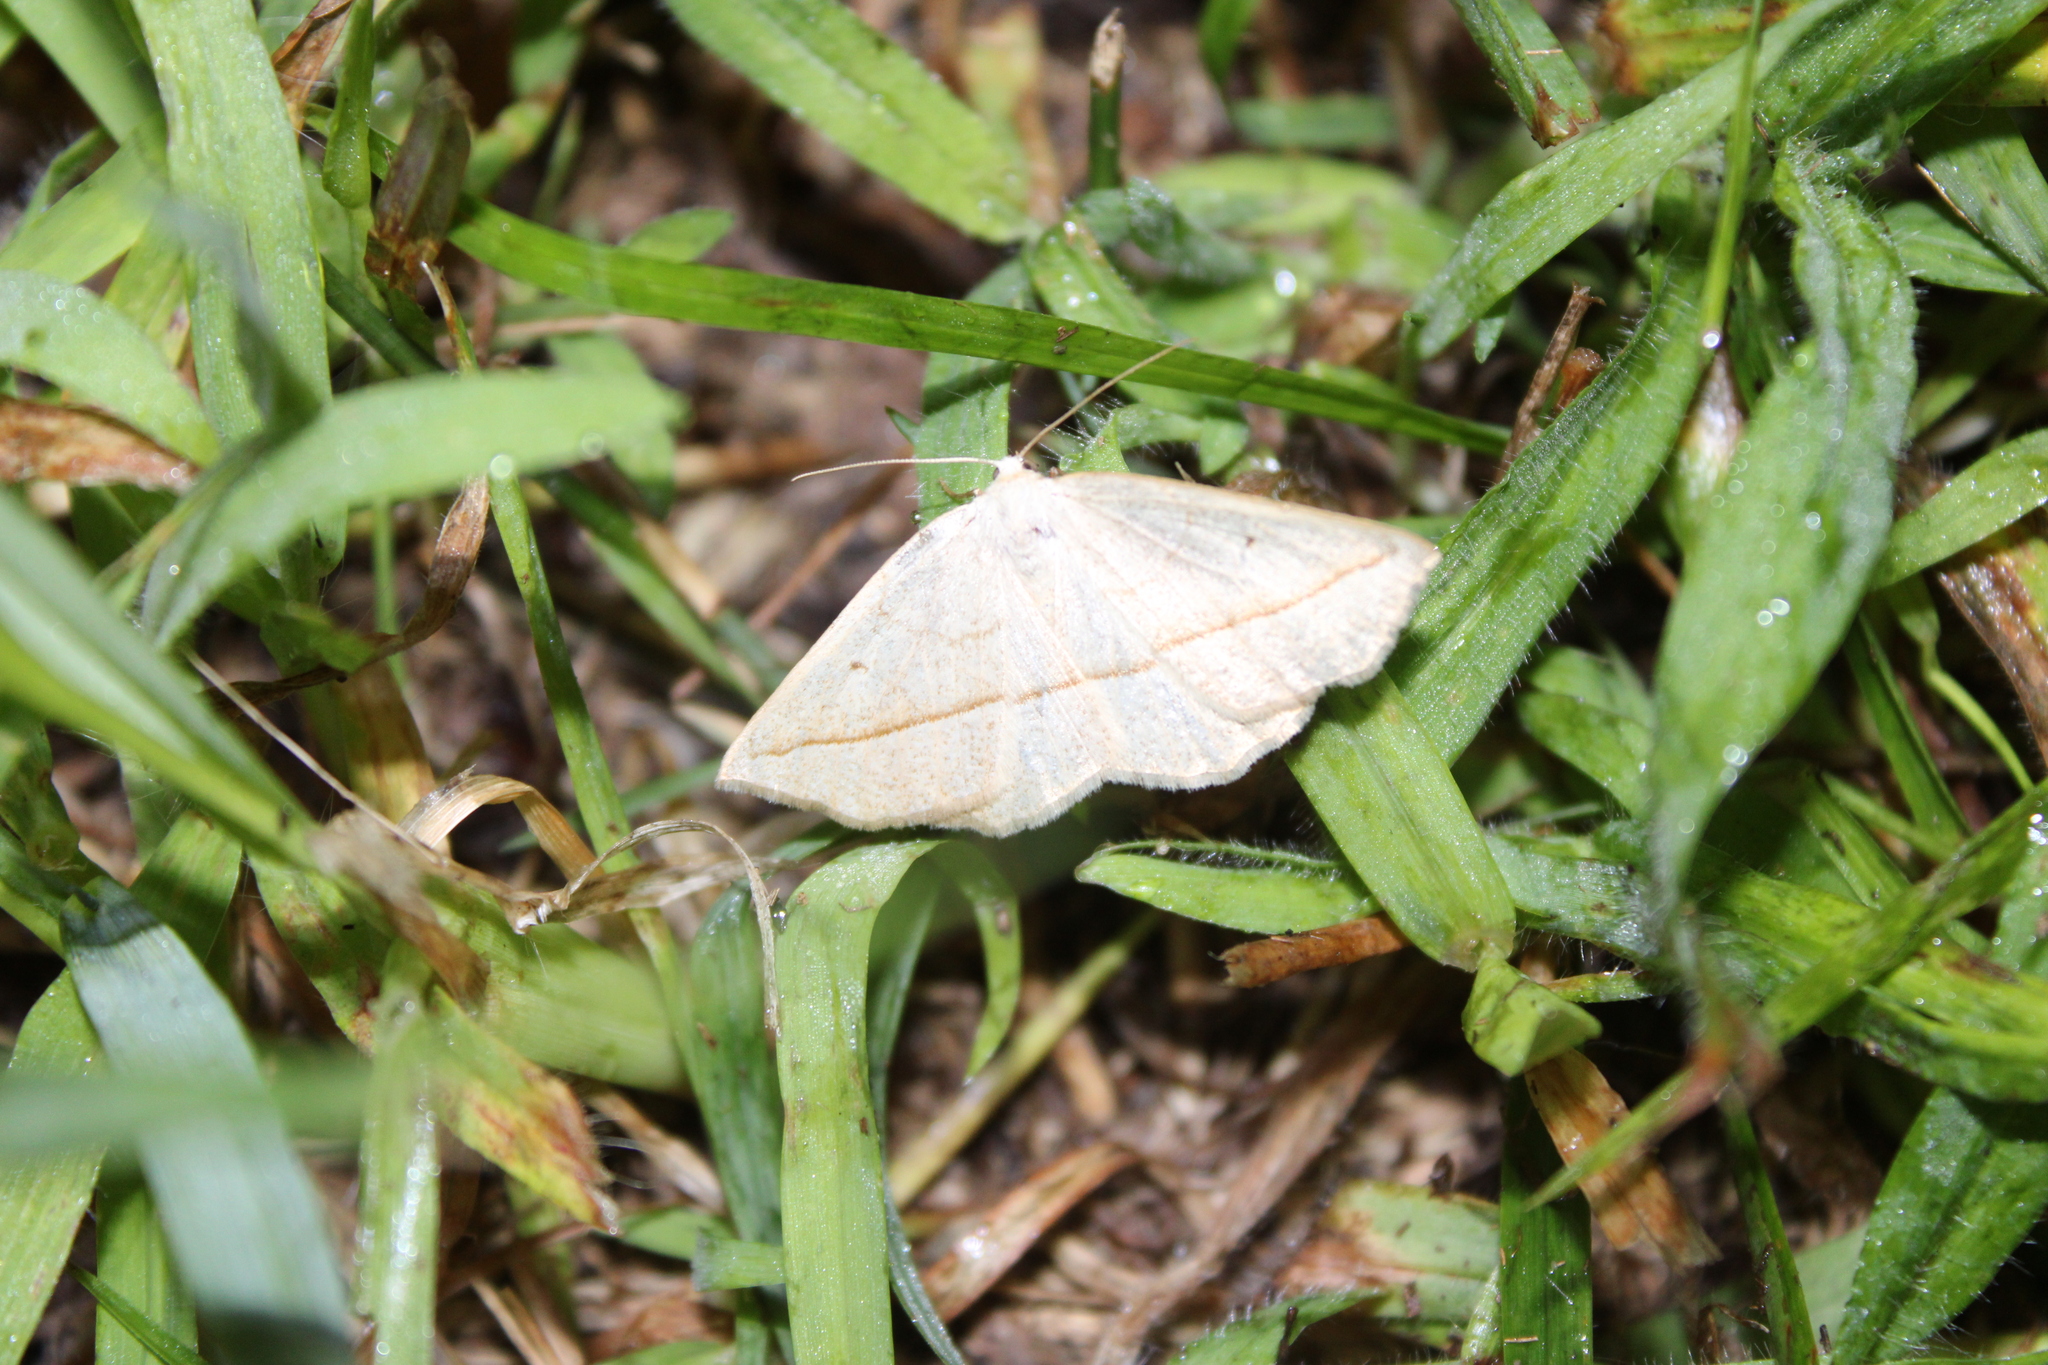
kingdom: Animalia
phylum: Arthropoda
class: Insecta
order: Lepidoptera
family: Geometridae
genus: Eusarca
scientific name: Eusarca confusaria
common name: Confused eusarca
